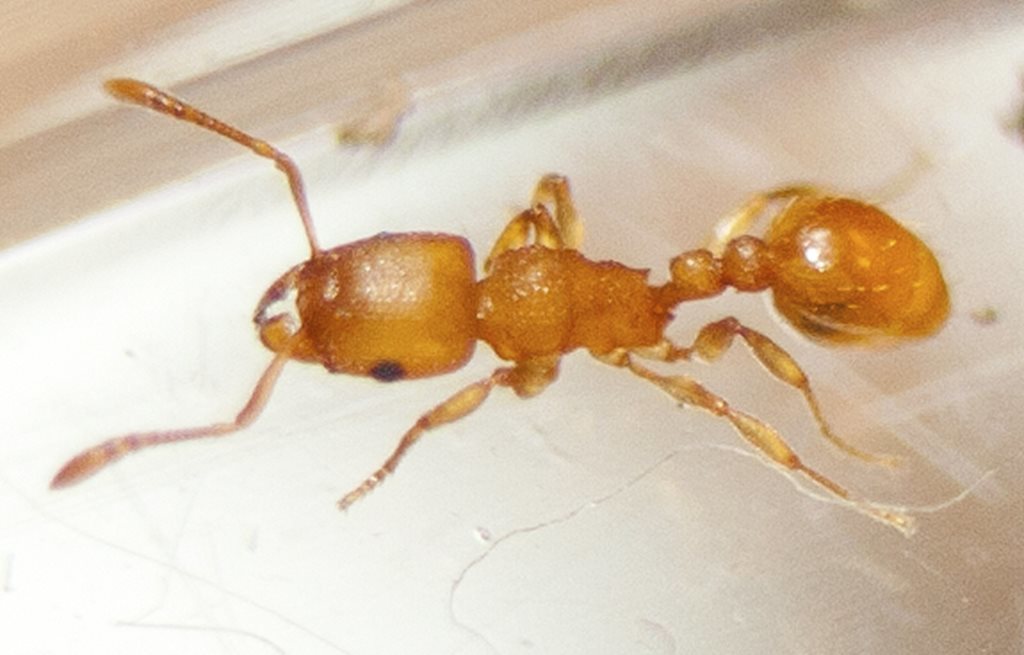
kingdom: Animalia
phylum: Arthropoda
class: Insecta
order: Hymenoptera
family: Formicidae
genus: Tetramorium
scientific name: Tetramorium simillimum
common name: Ant
